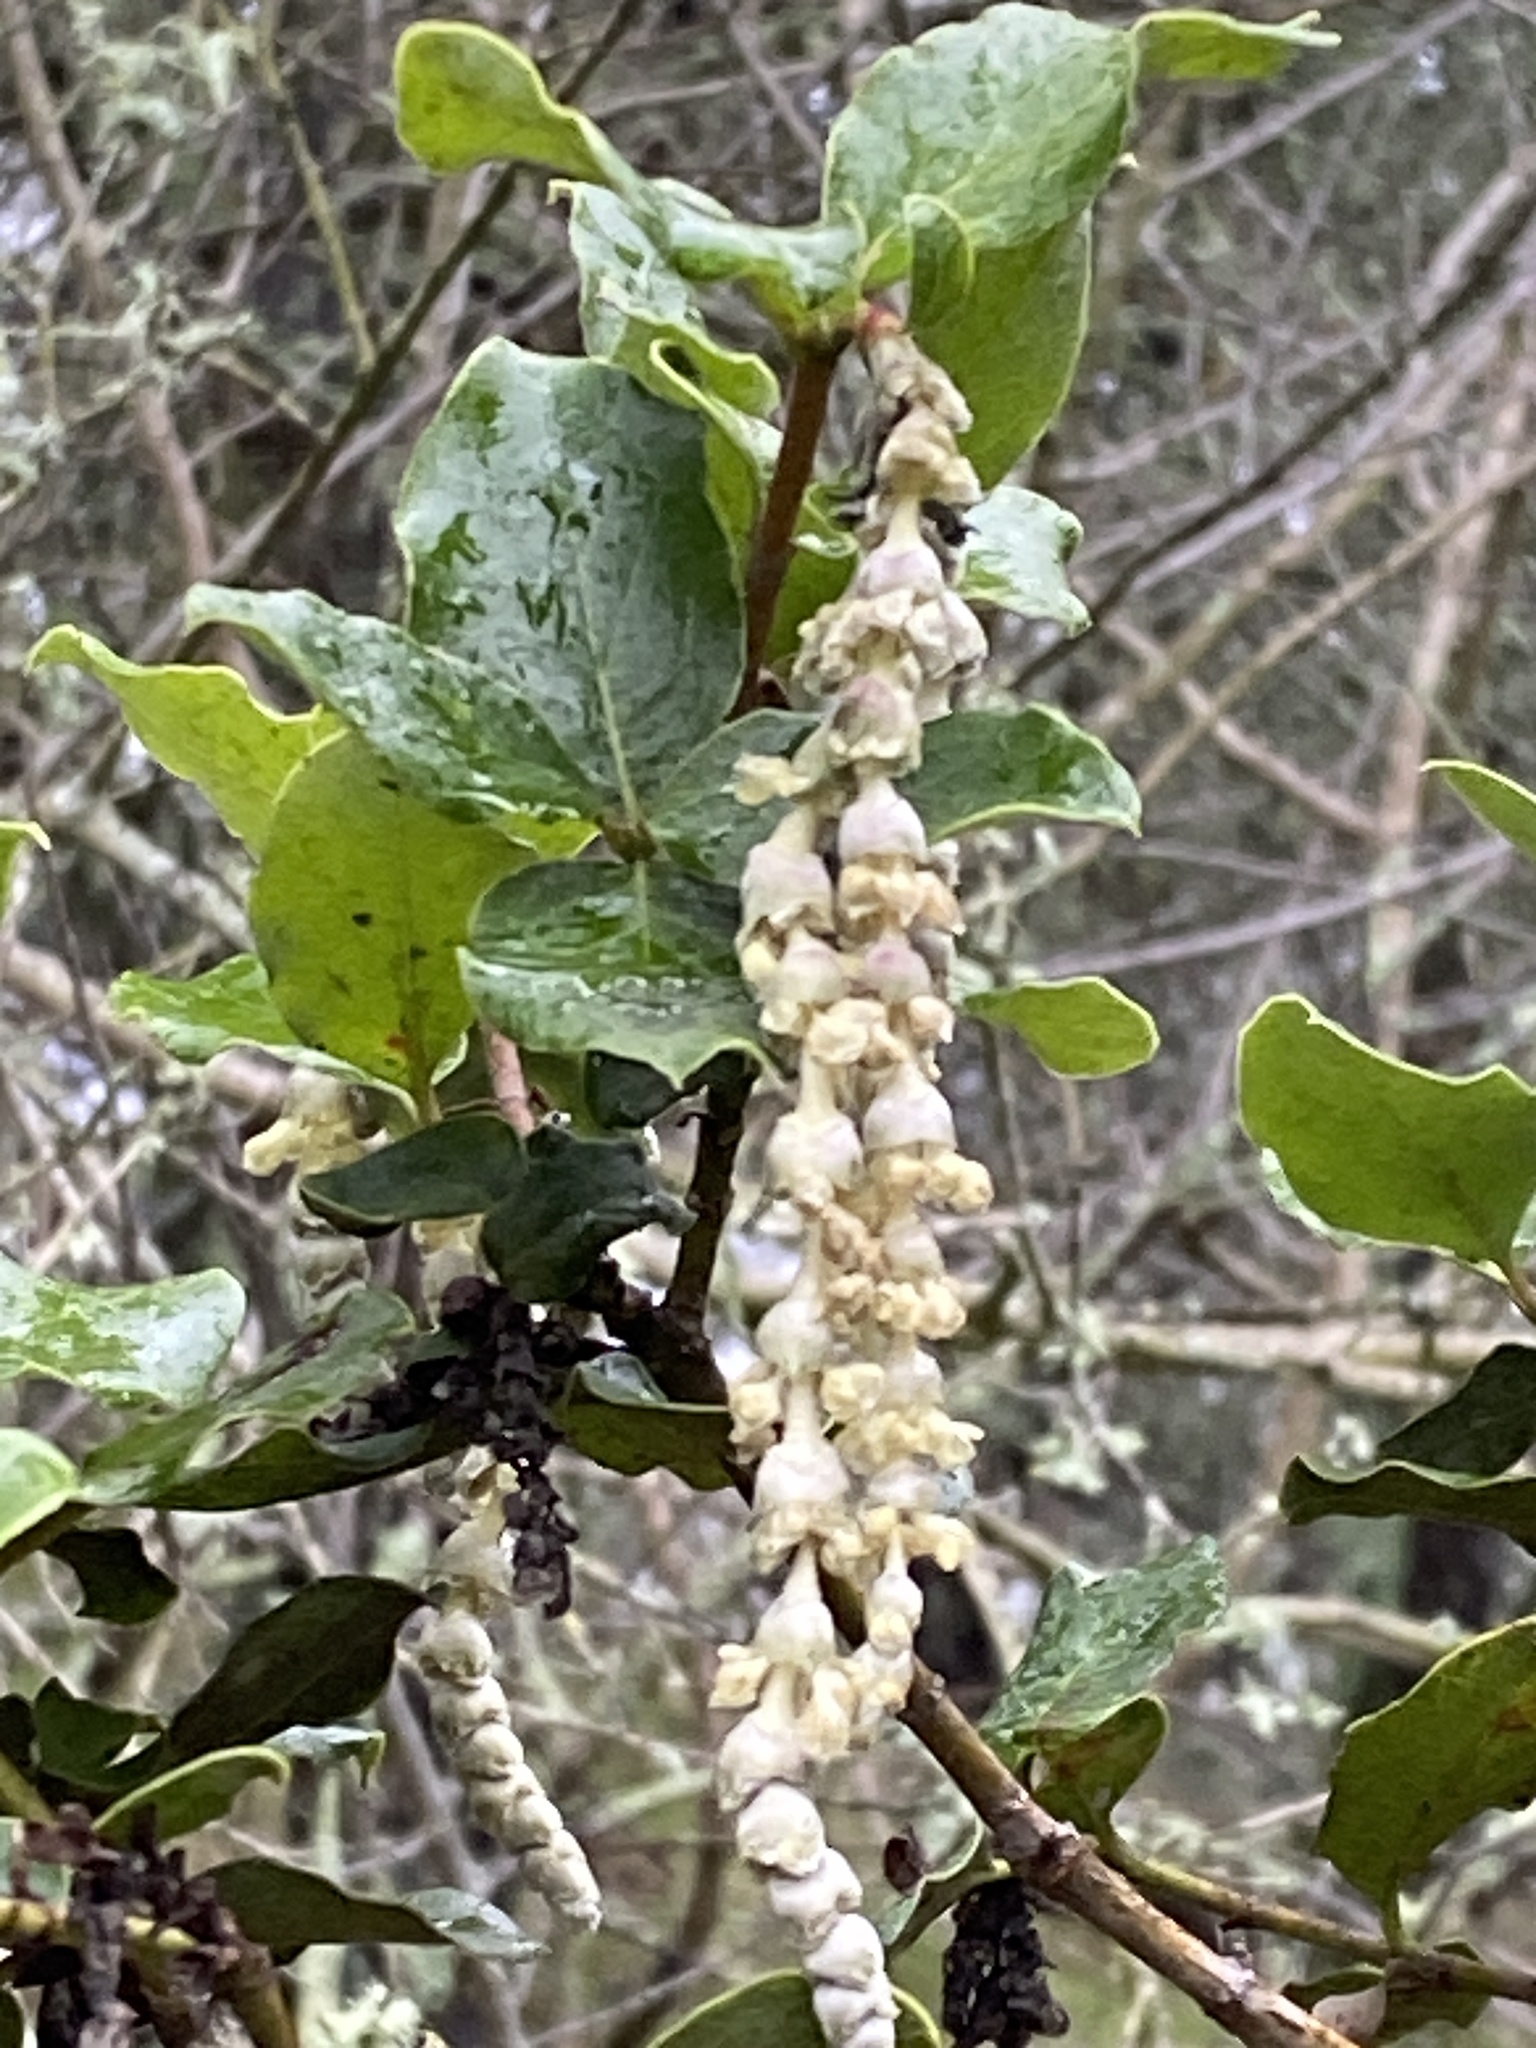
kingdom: Plantae
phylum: Tracheophyta
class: Magnoliopsida
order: Garryales
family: Garryaceae
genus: Garrya
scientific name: Garrya elliptica
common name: Silk-tassel
